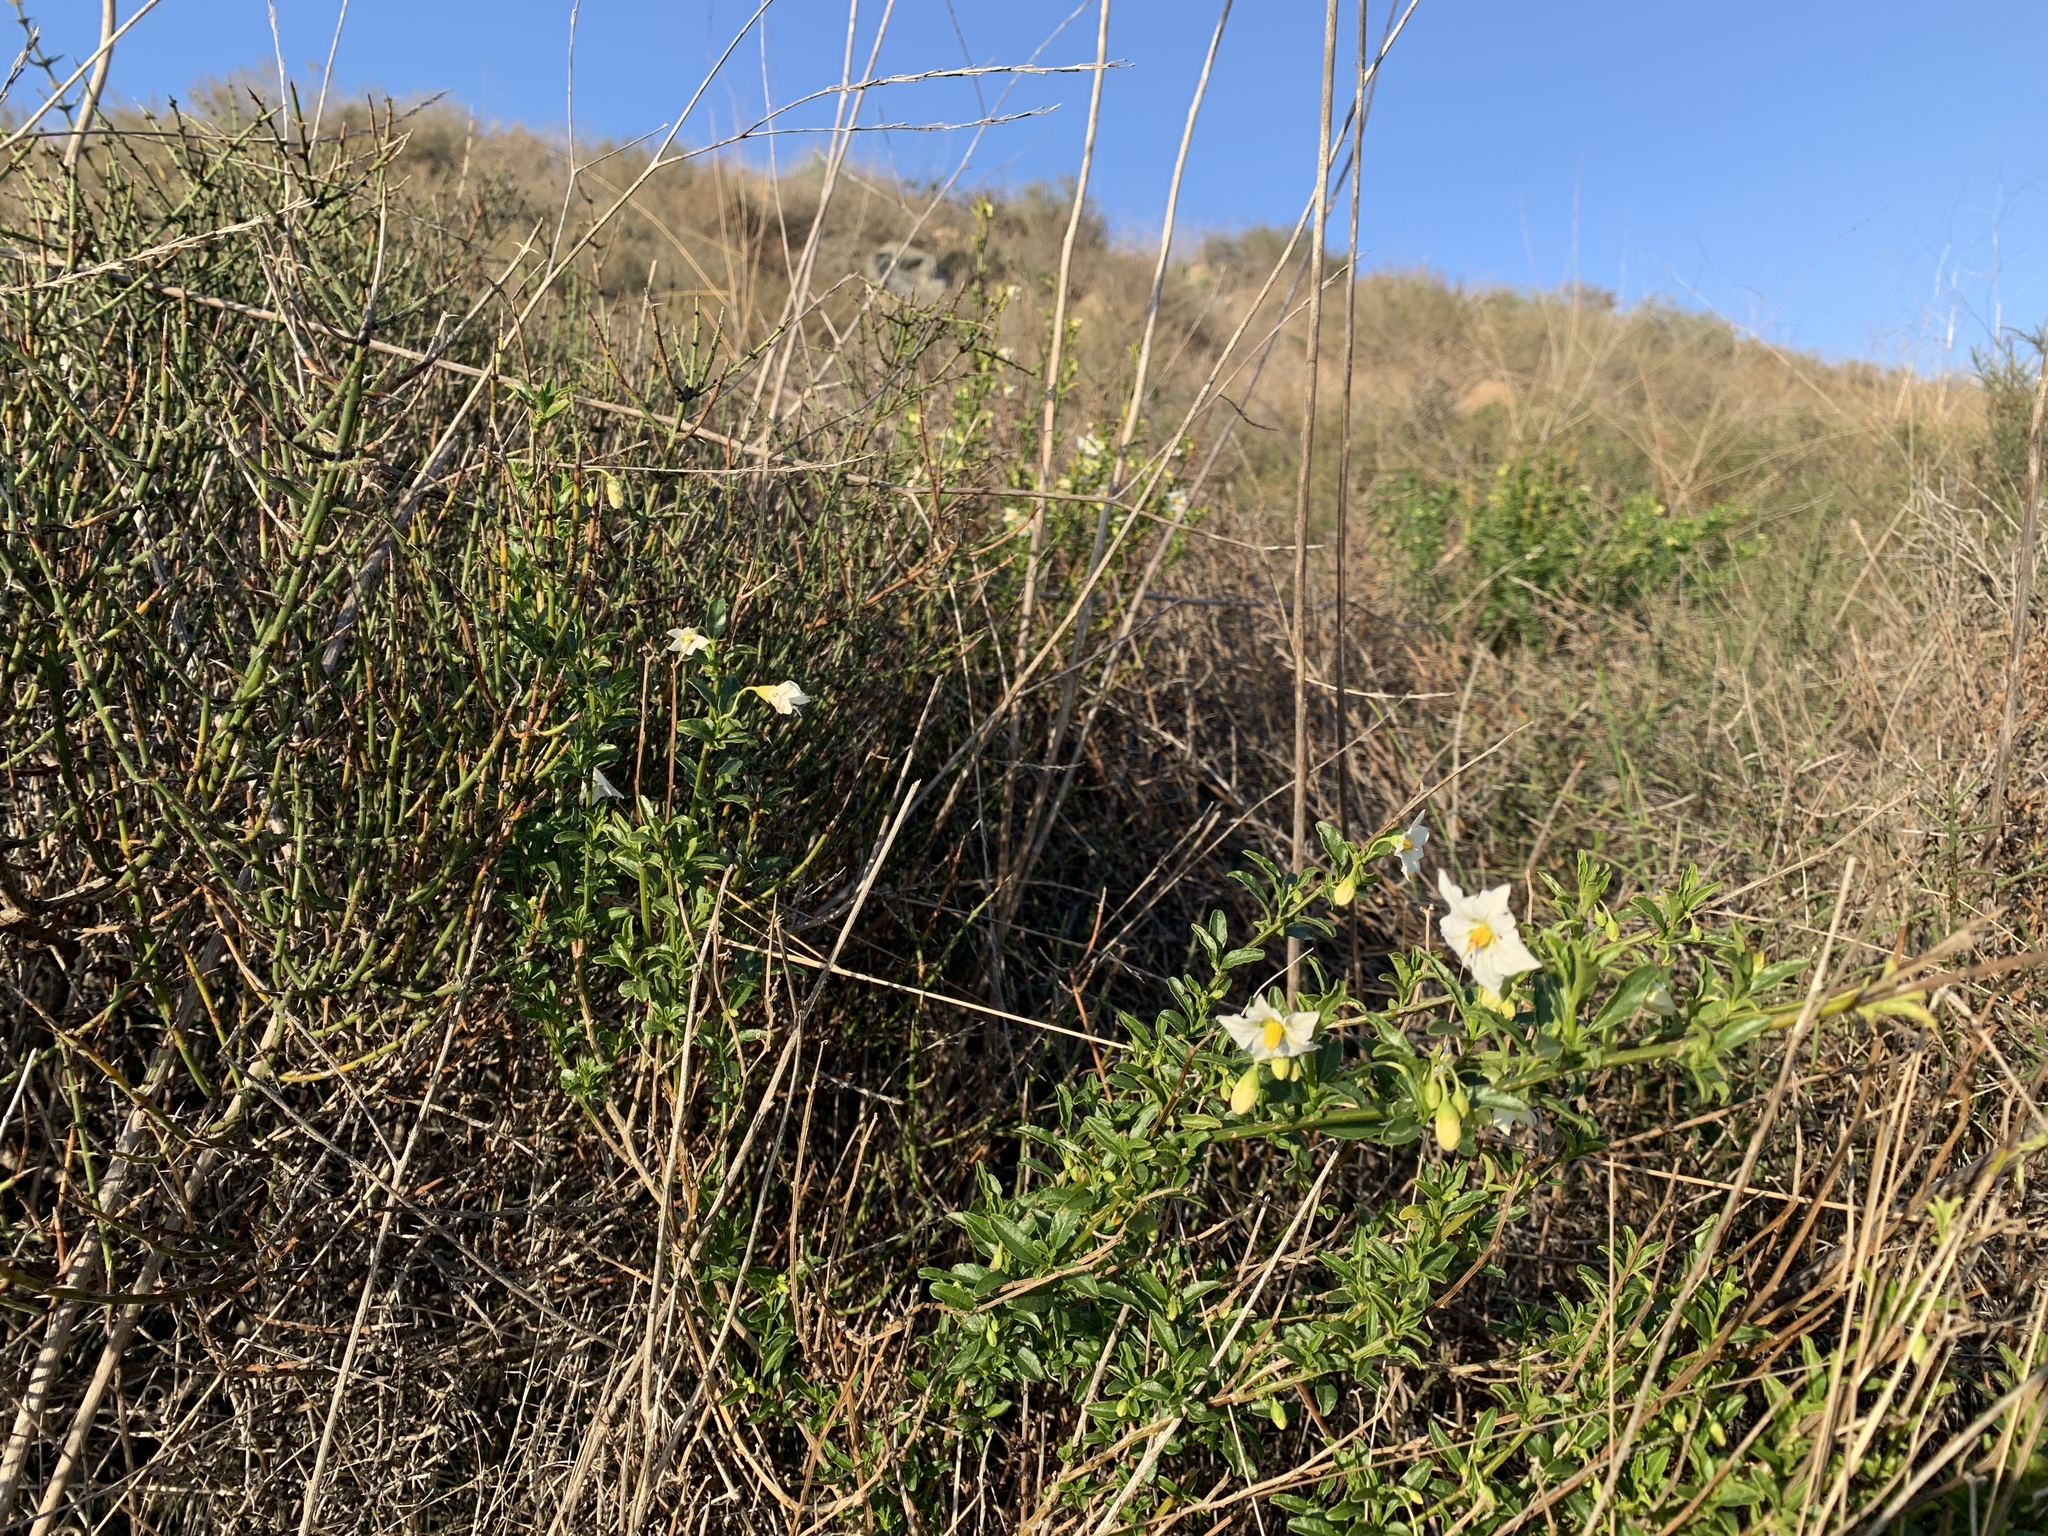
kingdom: Plantae
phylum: Tracheophyta
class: Magnoliopsida
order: Solanales
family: Solanaceae
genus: Solanum
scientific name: Solanum umbelliferum
